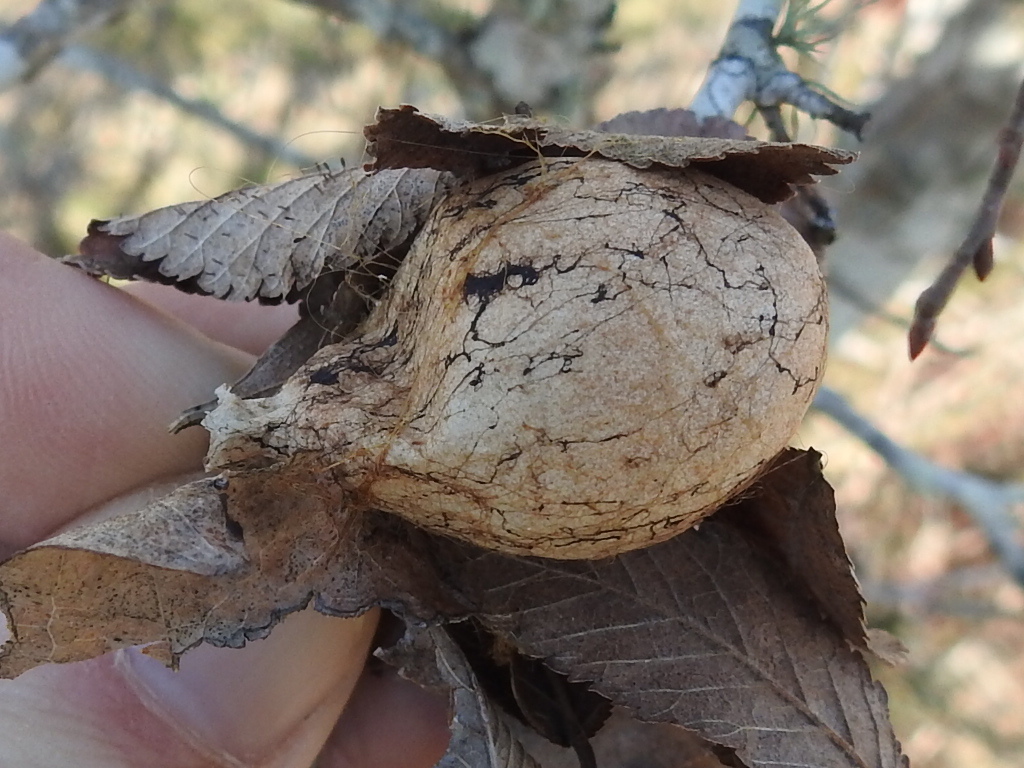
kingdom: Animalia
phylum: Arthropoda
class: Arachnida
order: Araneae
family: Araneidae
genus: Argiope
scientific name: Argiope aurantia
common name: Orb weavers
